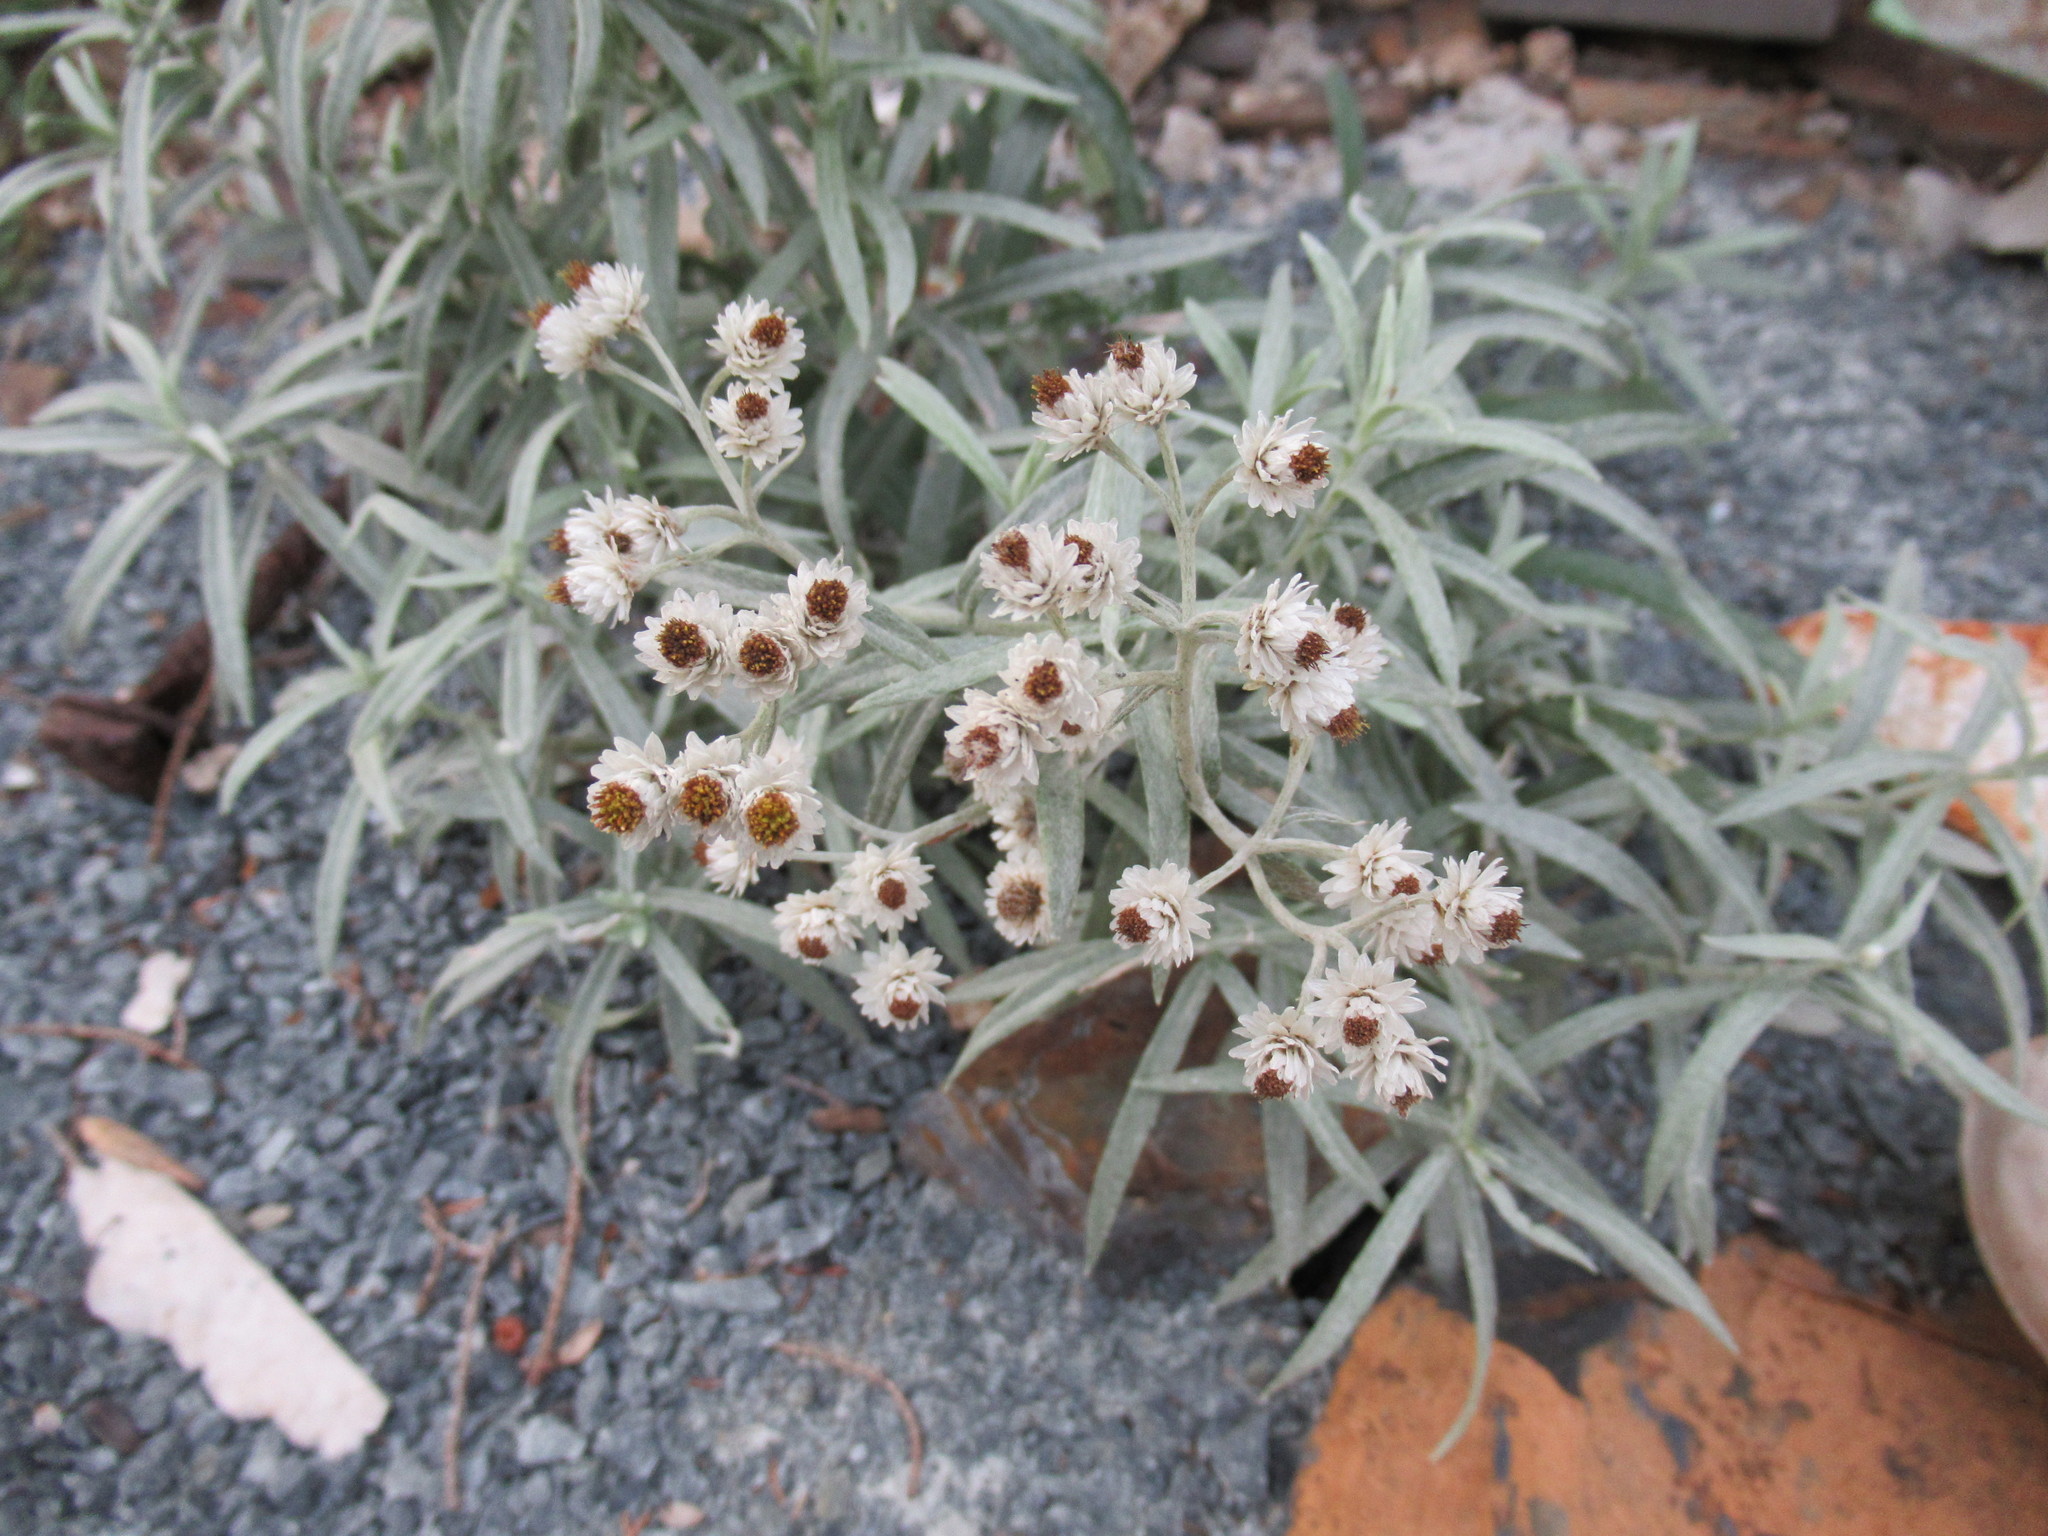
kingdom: Plantae
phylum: Tracheophyta
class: Magnoliopsida
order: Asterales
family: Asteraceae
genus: Anaphalis
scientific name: Anaphalis margaritacea
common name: Pearly everlasting
